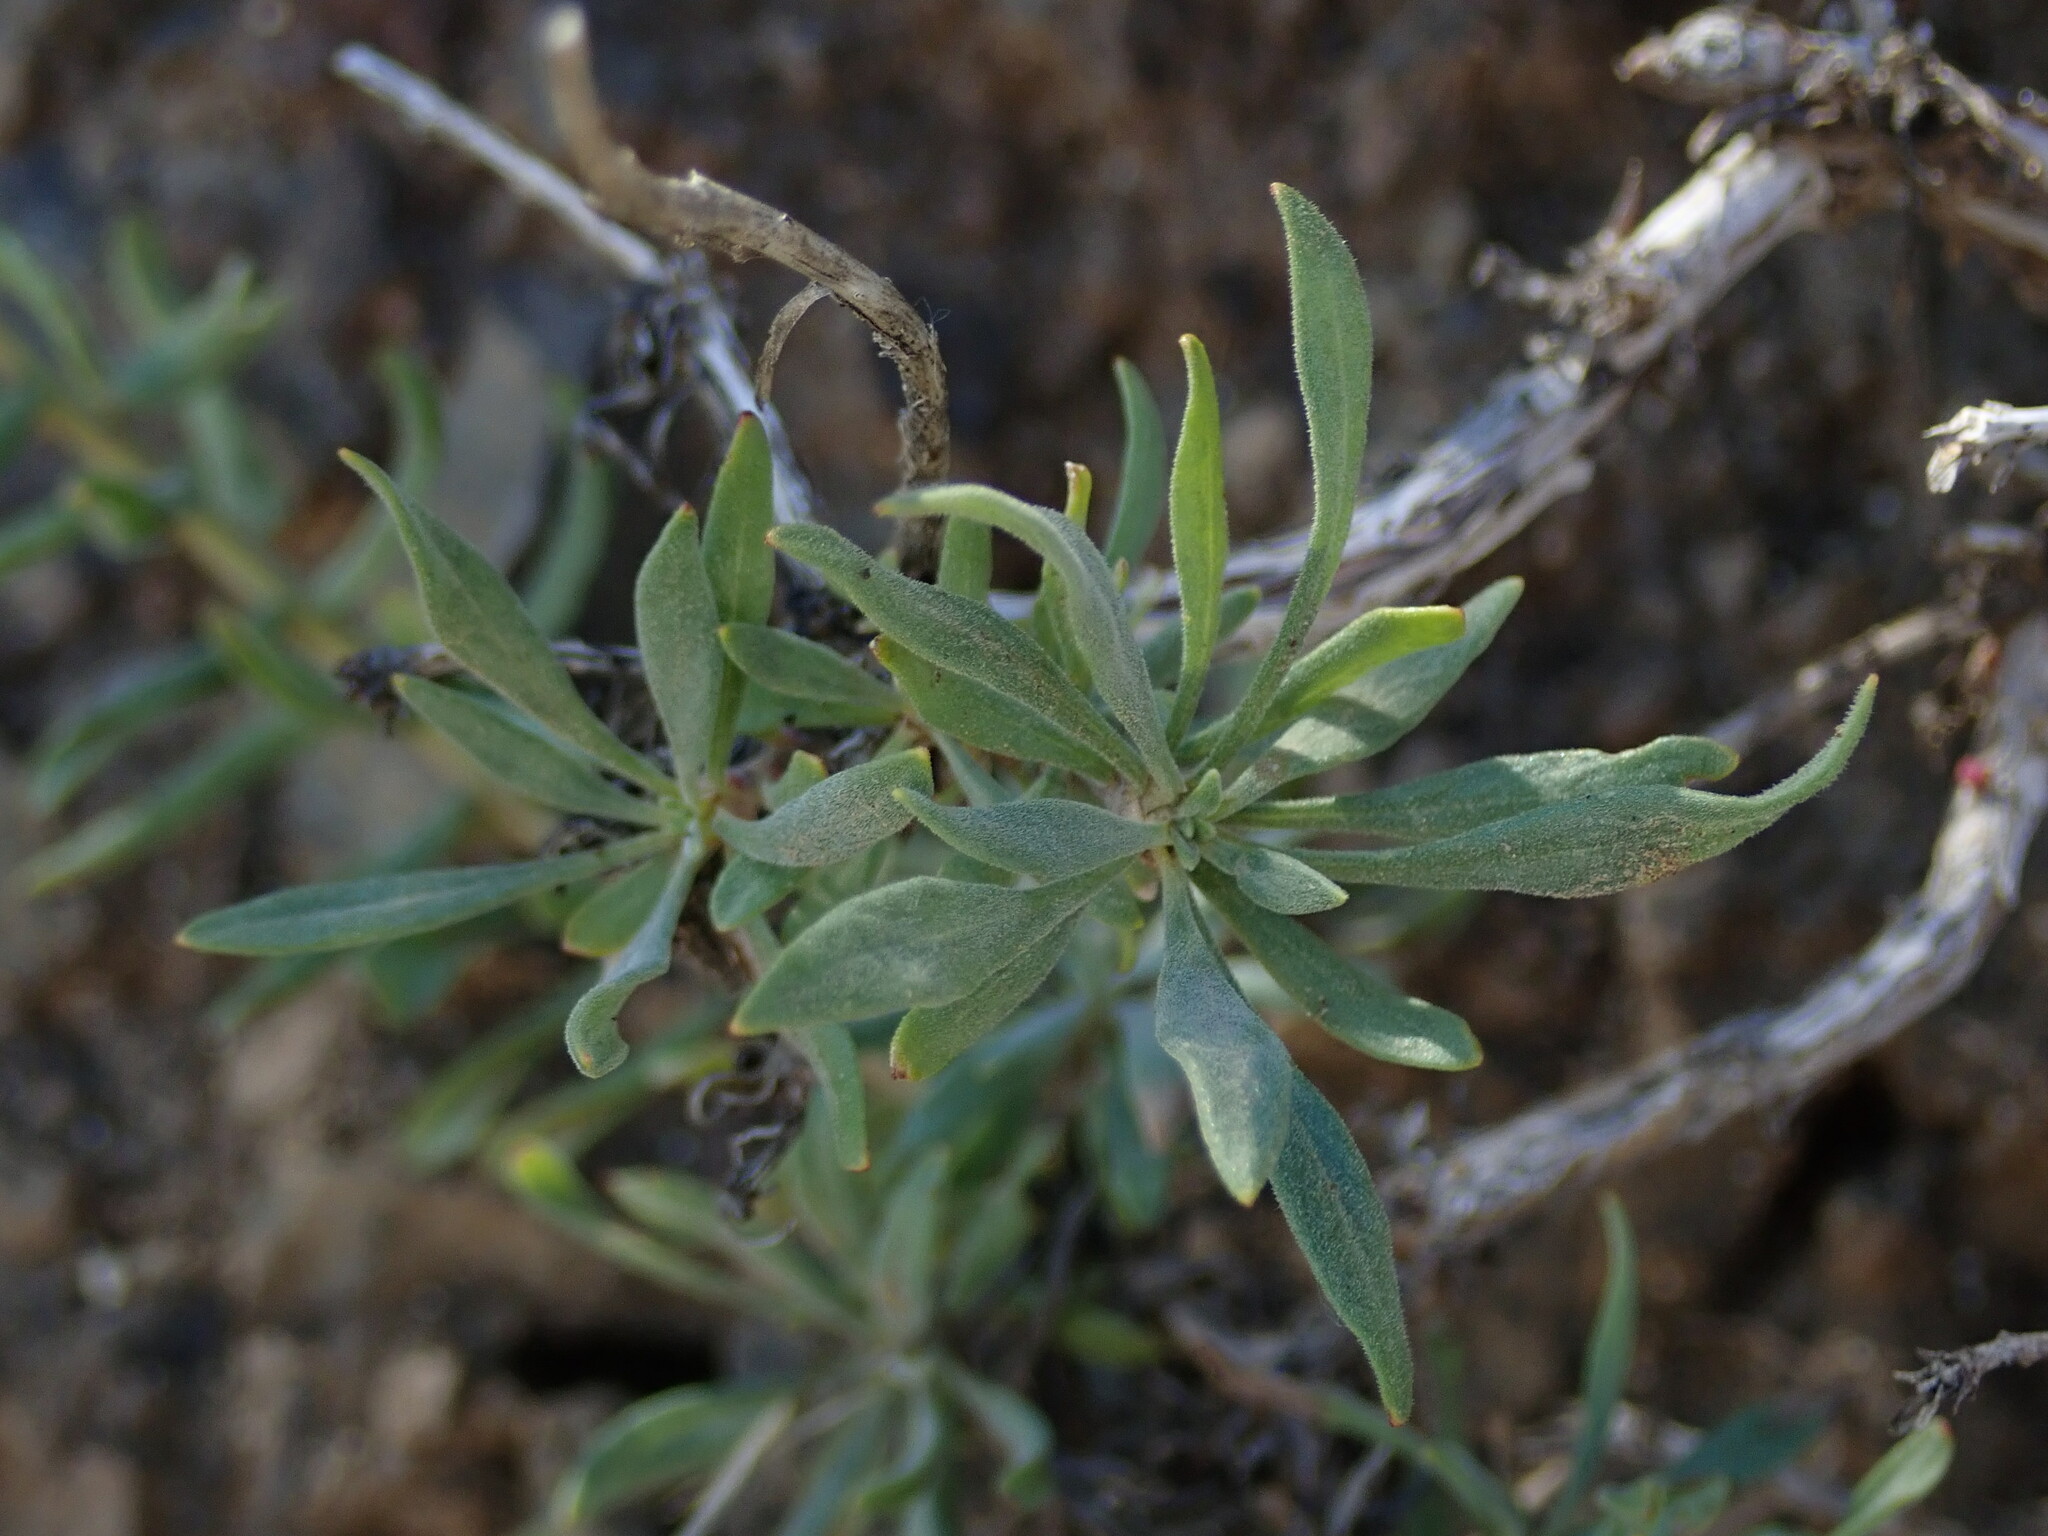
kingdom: Plantae
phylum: Tracheophyta
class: Magnoliopsida
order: Lamiales
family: Plantaginaceae
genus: Penstemon
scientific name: Penstemon gairdneri
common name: Gairdner's penstemon
